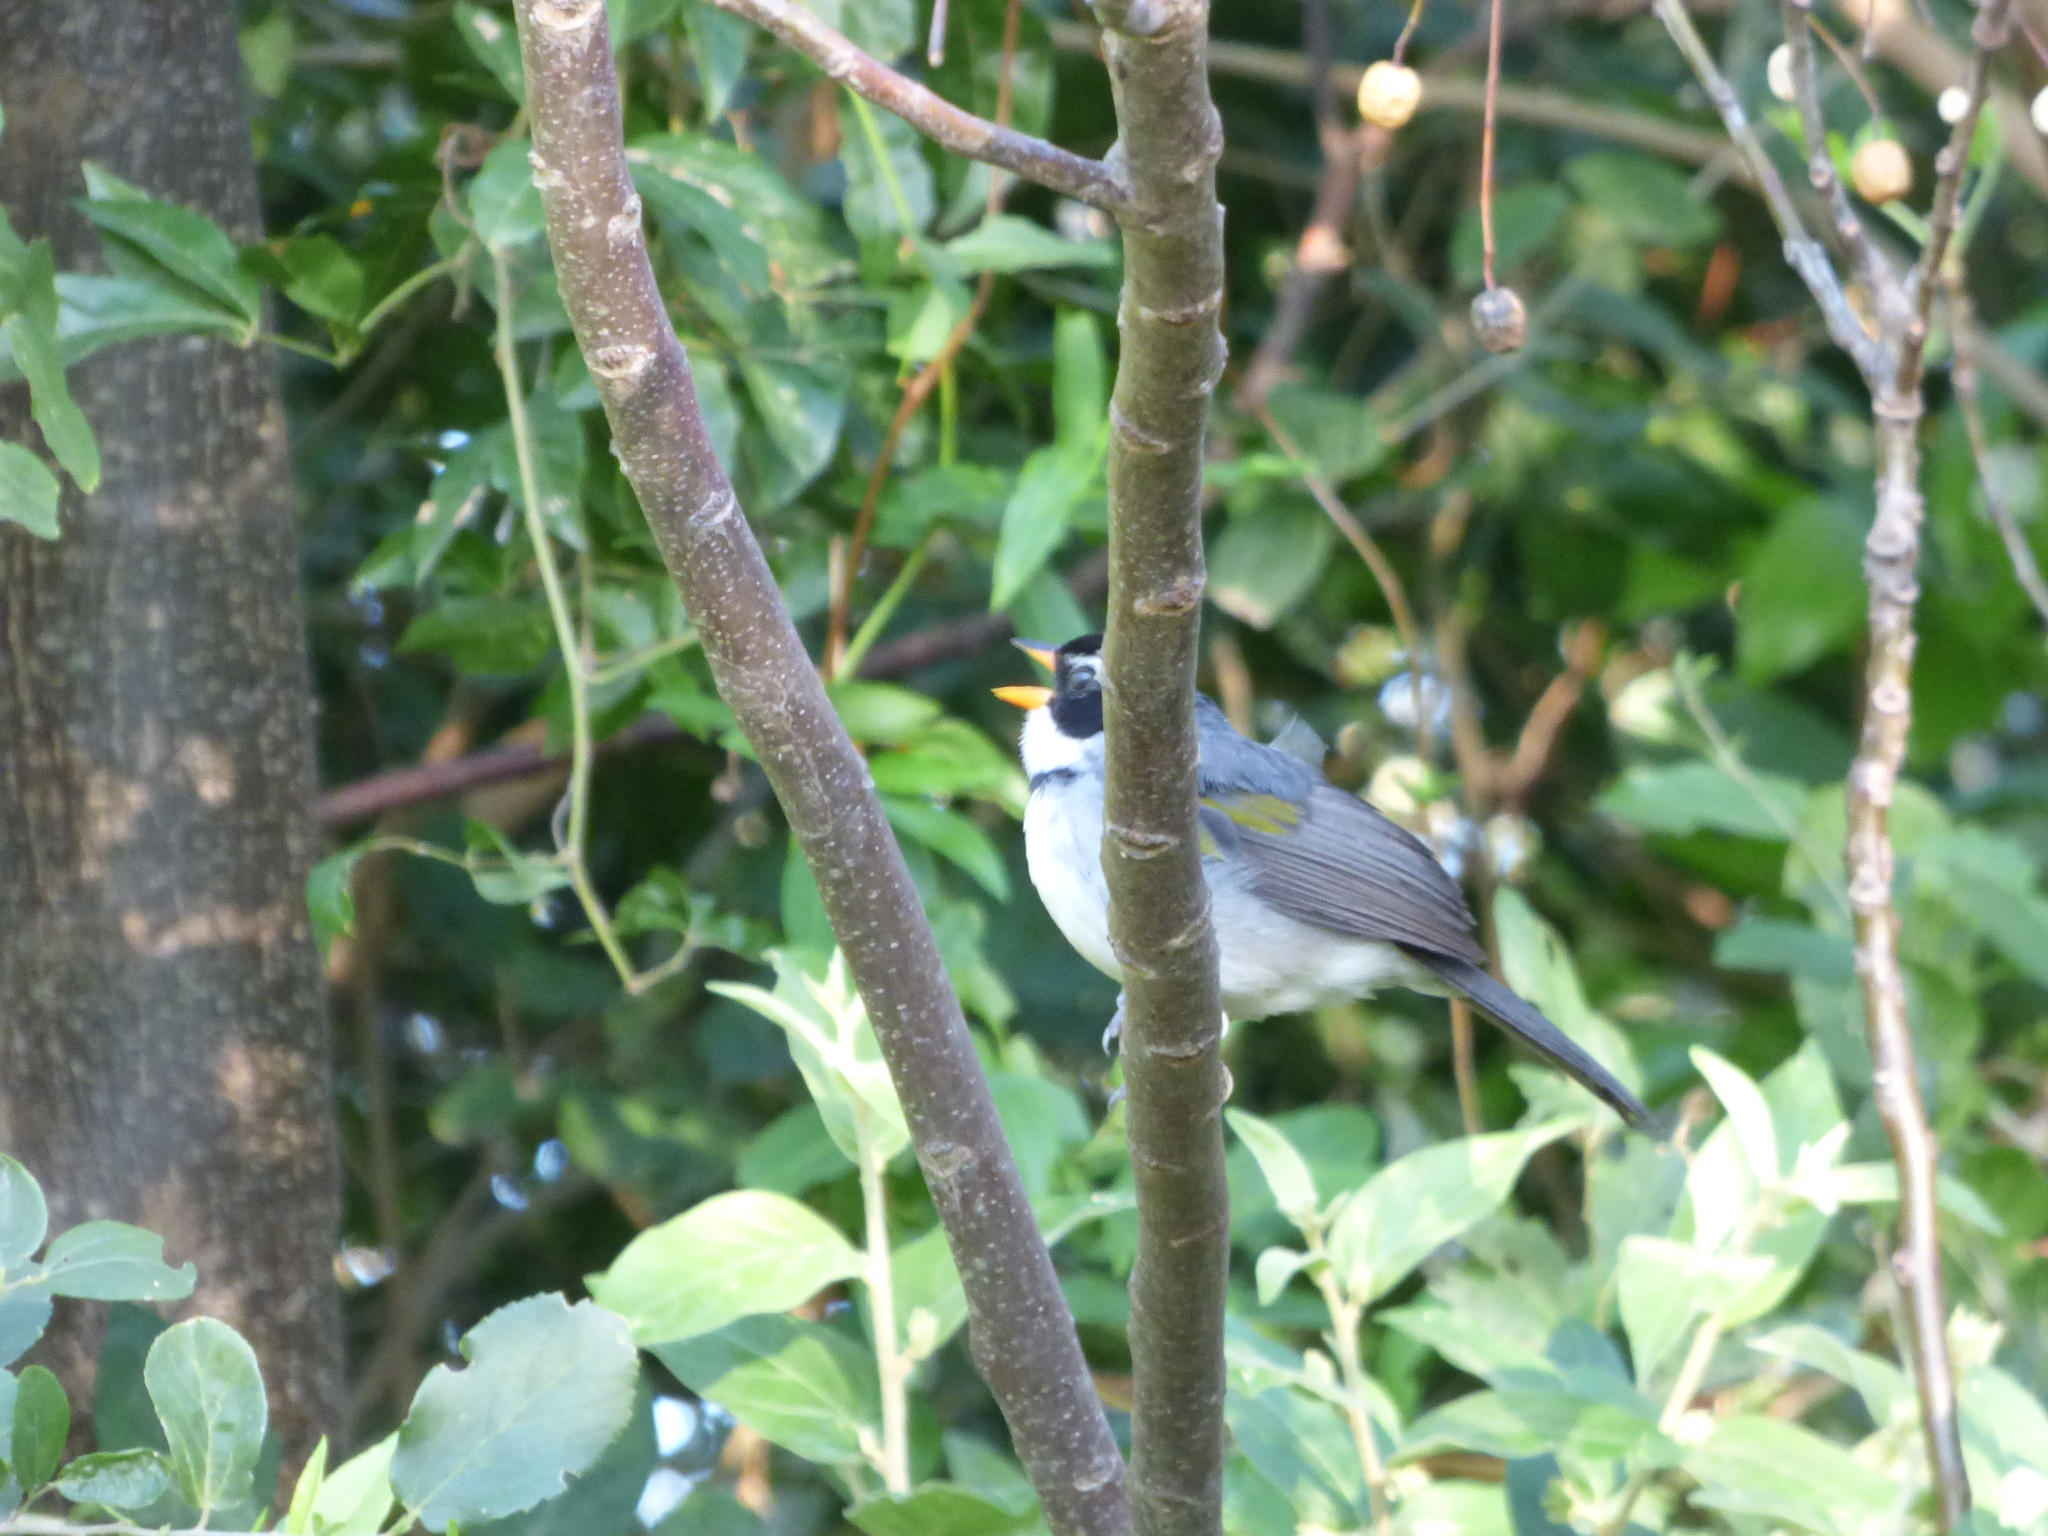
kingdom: Animalia
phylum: Chordata
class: Aves
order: Passeriformes
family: Passerellidae
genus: Arremon
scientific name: Arremon flavirostris
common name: Saffron-billed sparrow
